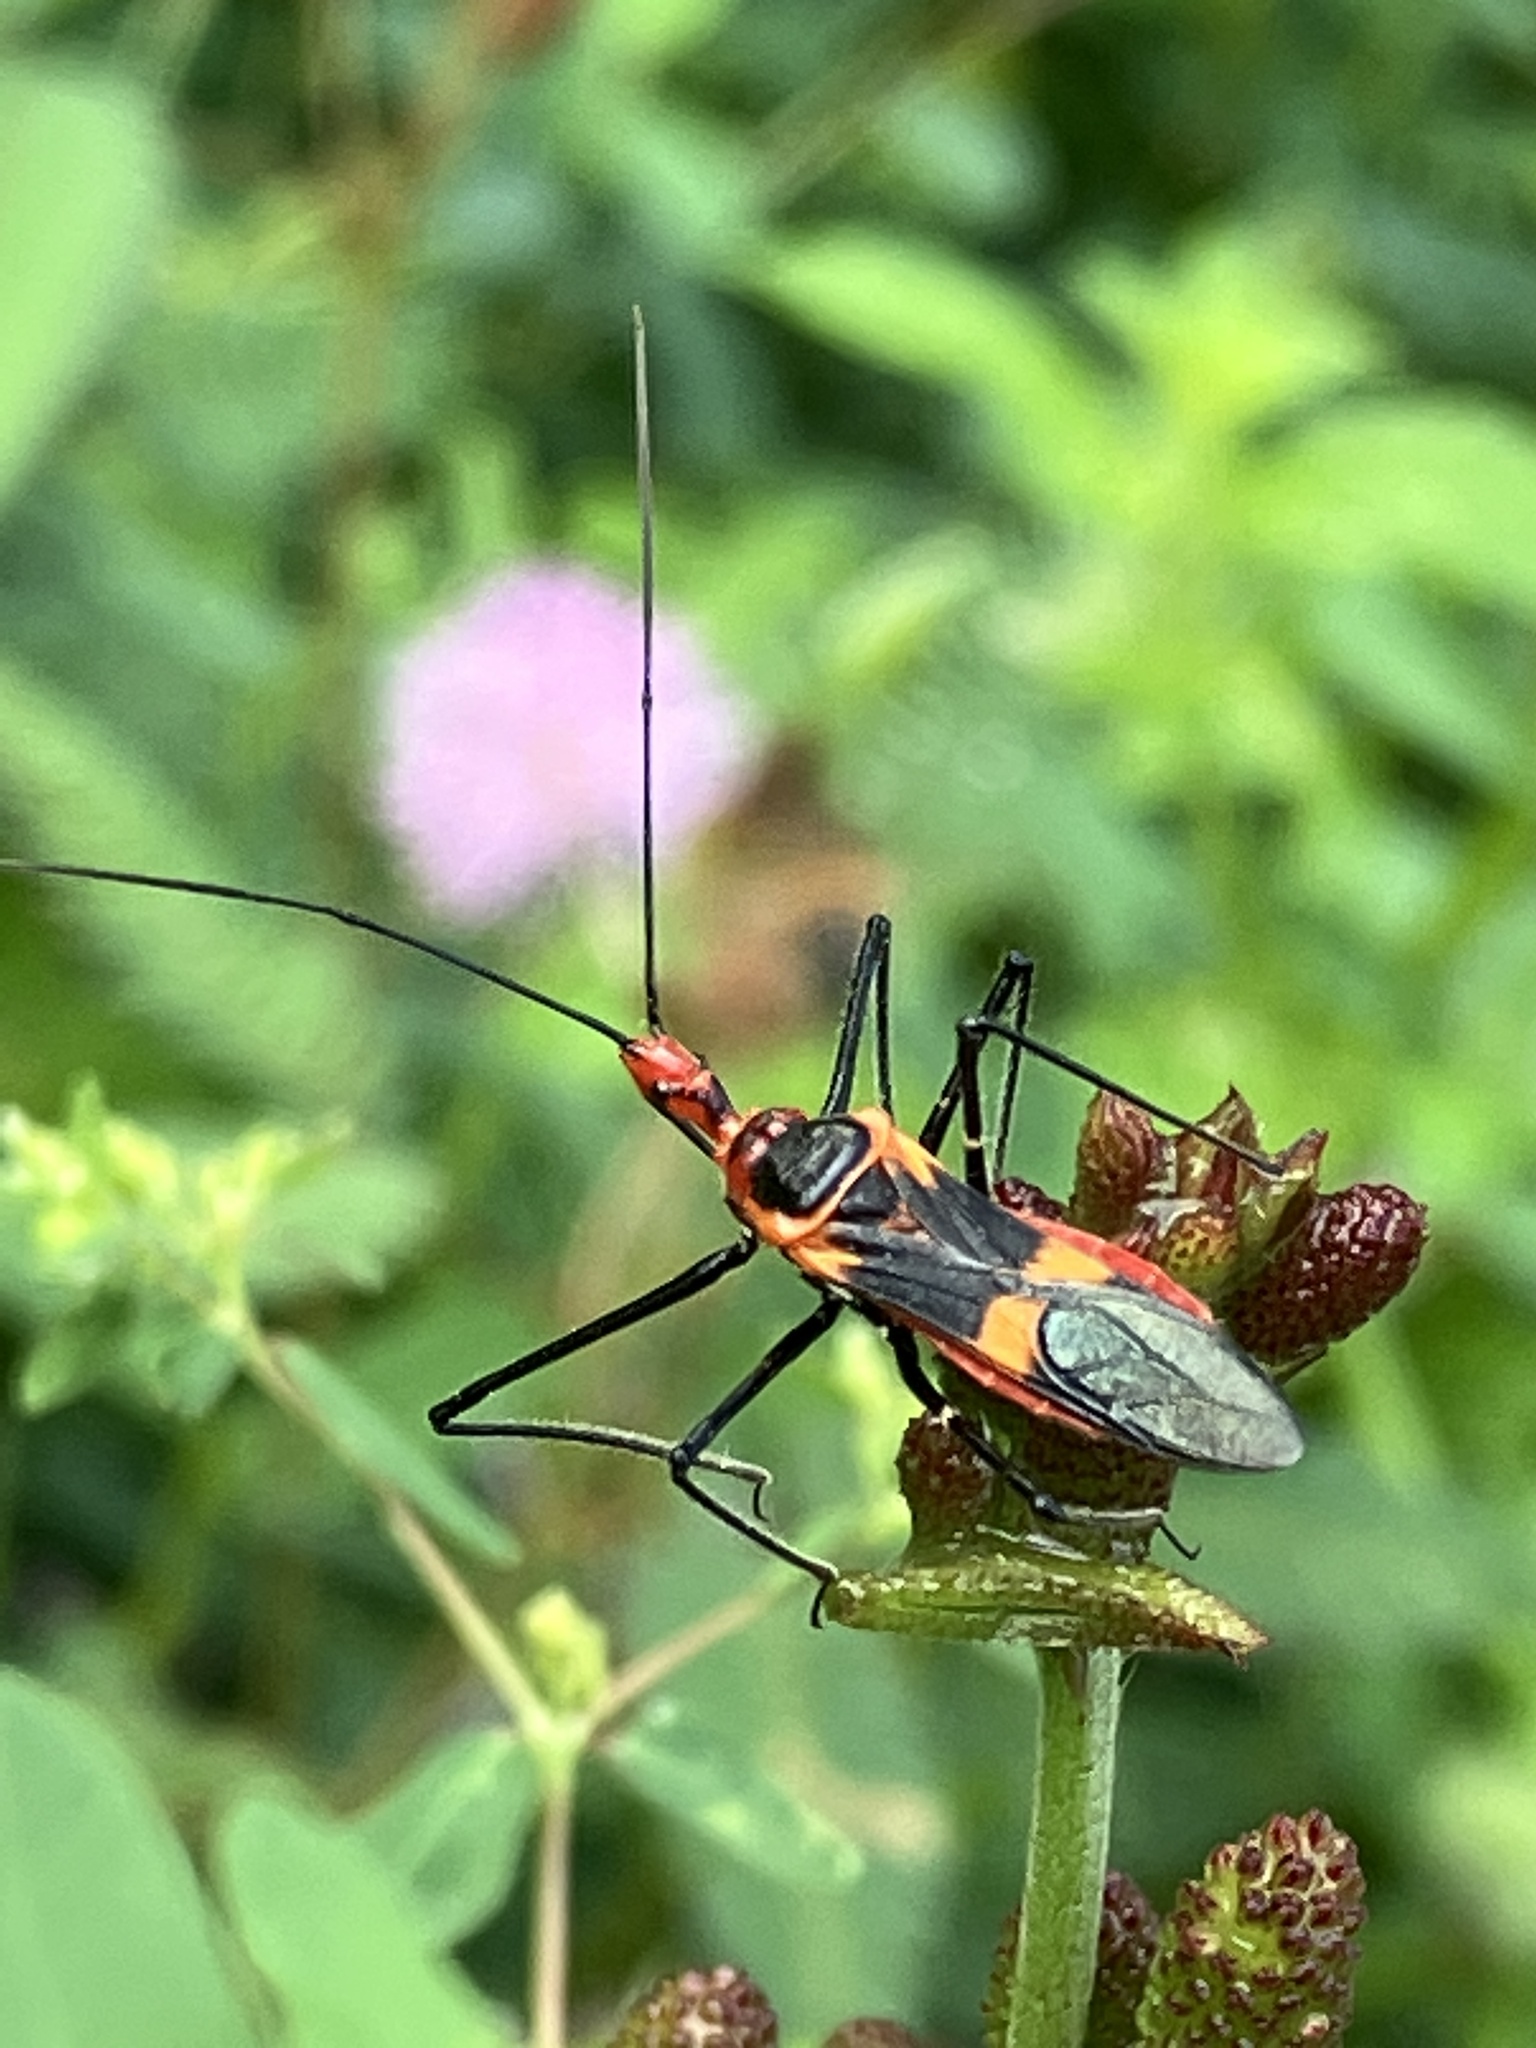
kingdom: Animalia
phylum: Arthropoda
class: Insecta
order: Hemiptera
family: Reduviidae
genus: Zelus
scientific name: Zelus longipes
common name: Milkweed assassin bug
